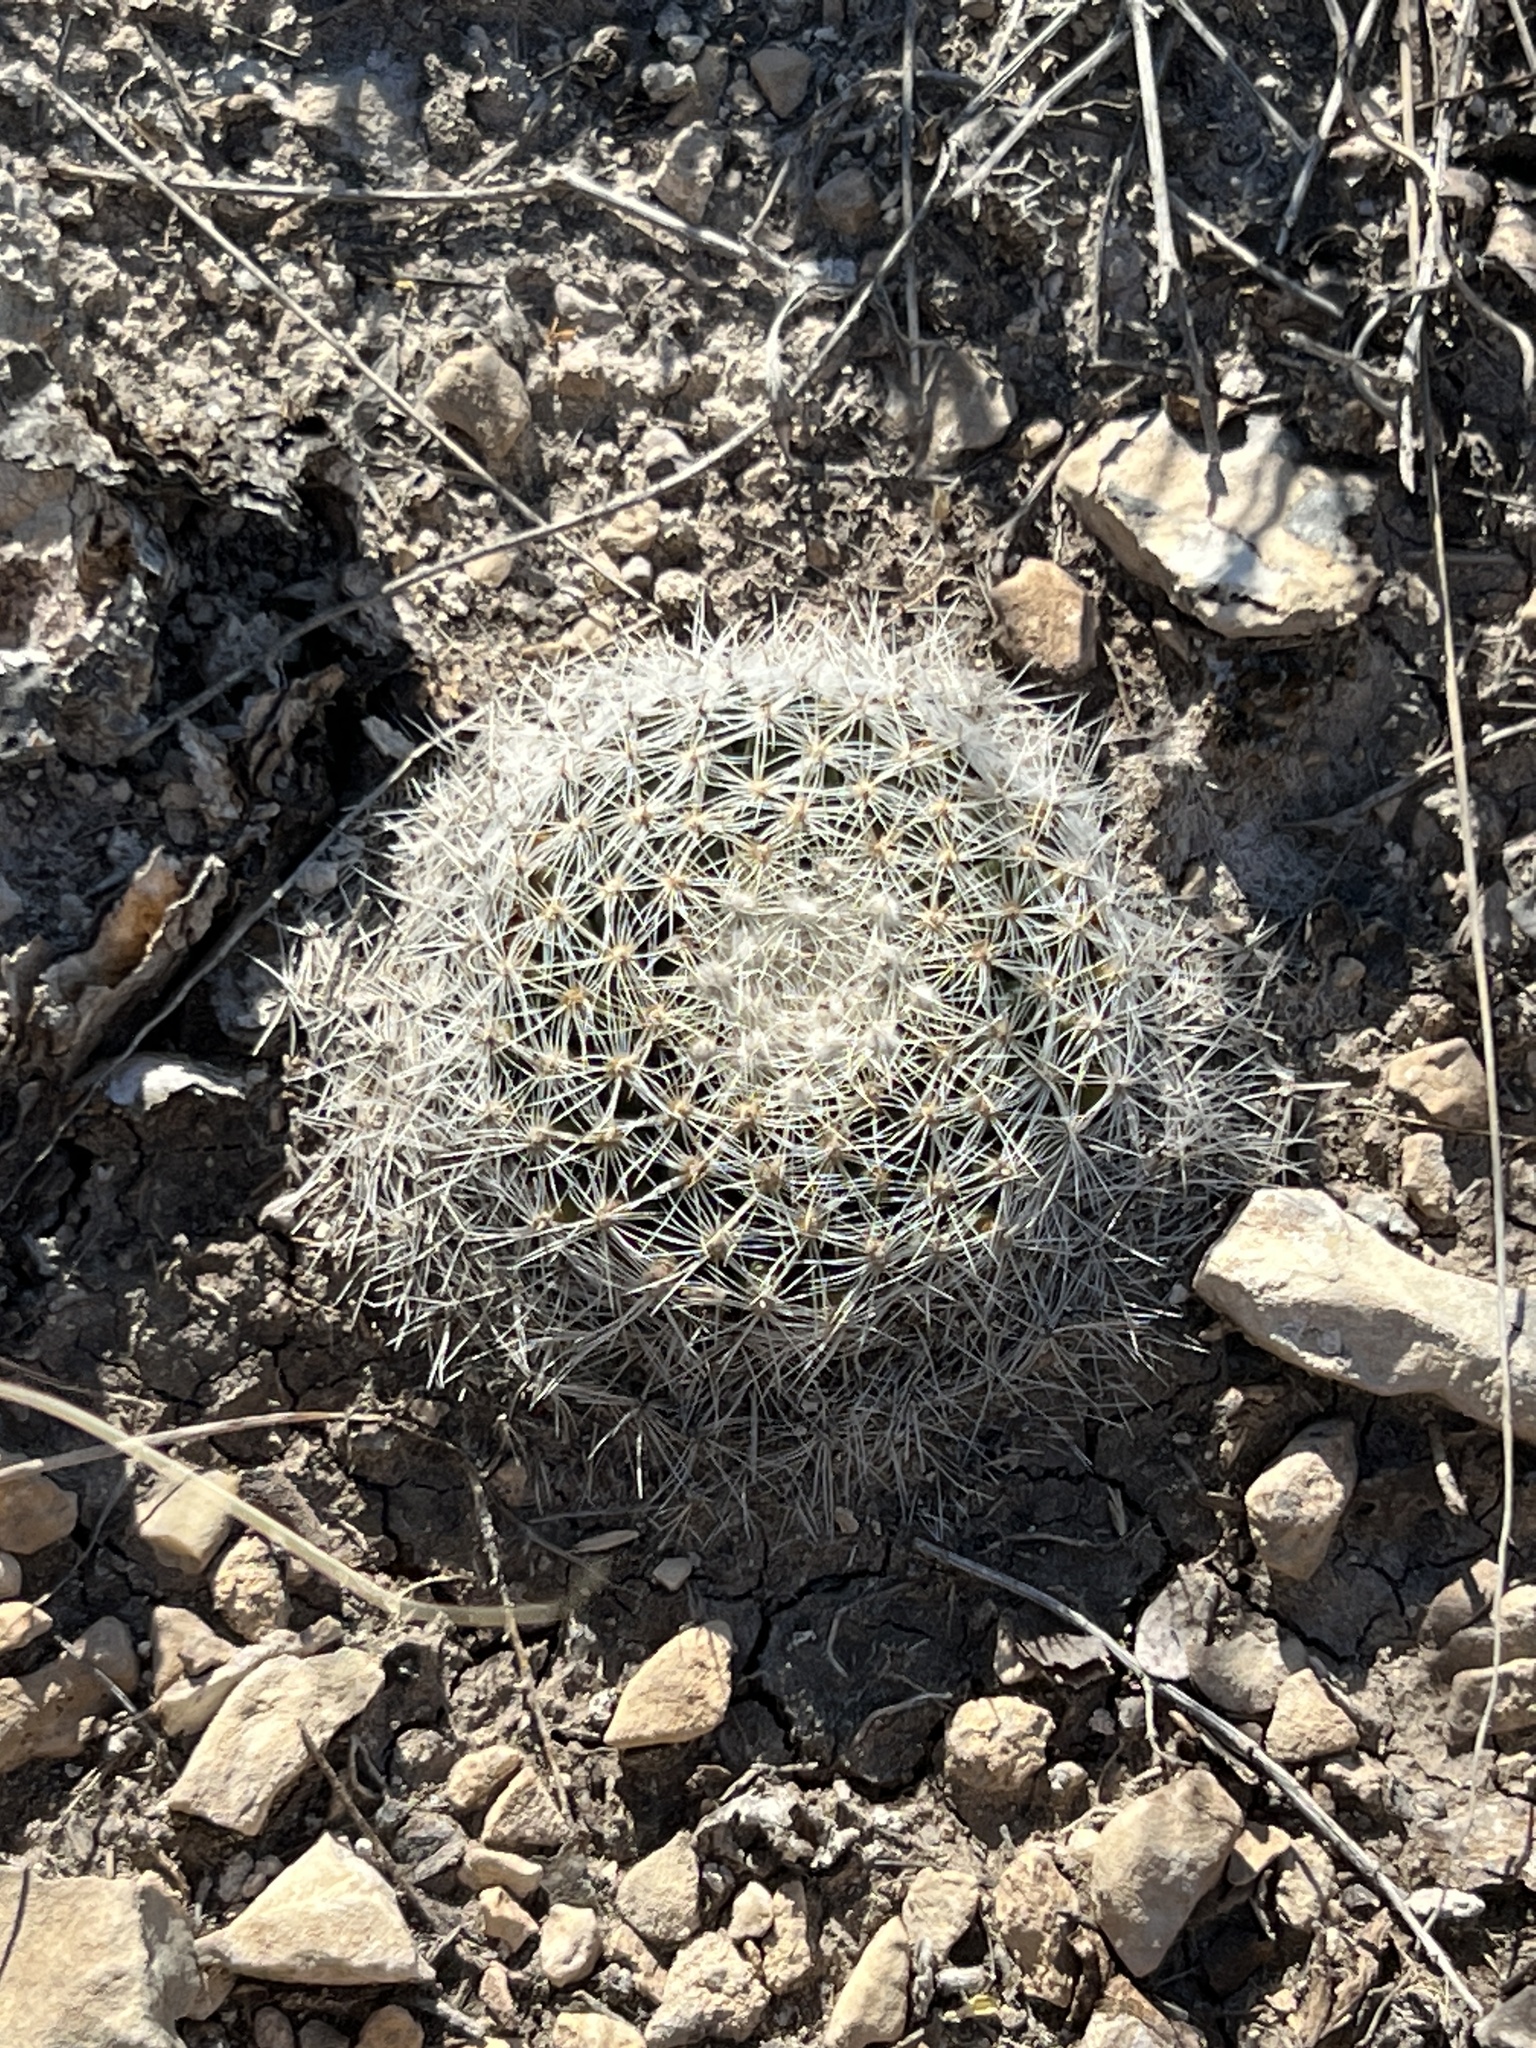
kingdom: Plantae
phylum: Tracheophyta
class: Magnoliopsida
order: Caryophyllales
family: Cactaceae
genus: Mammillaria
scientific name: Mammillaria heyderi
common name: Little nipple cactus
